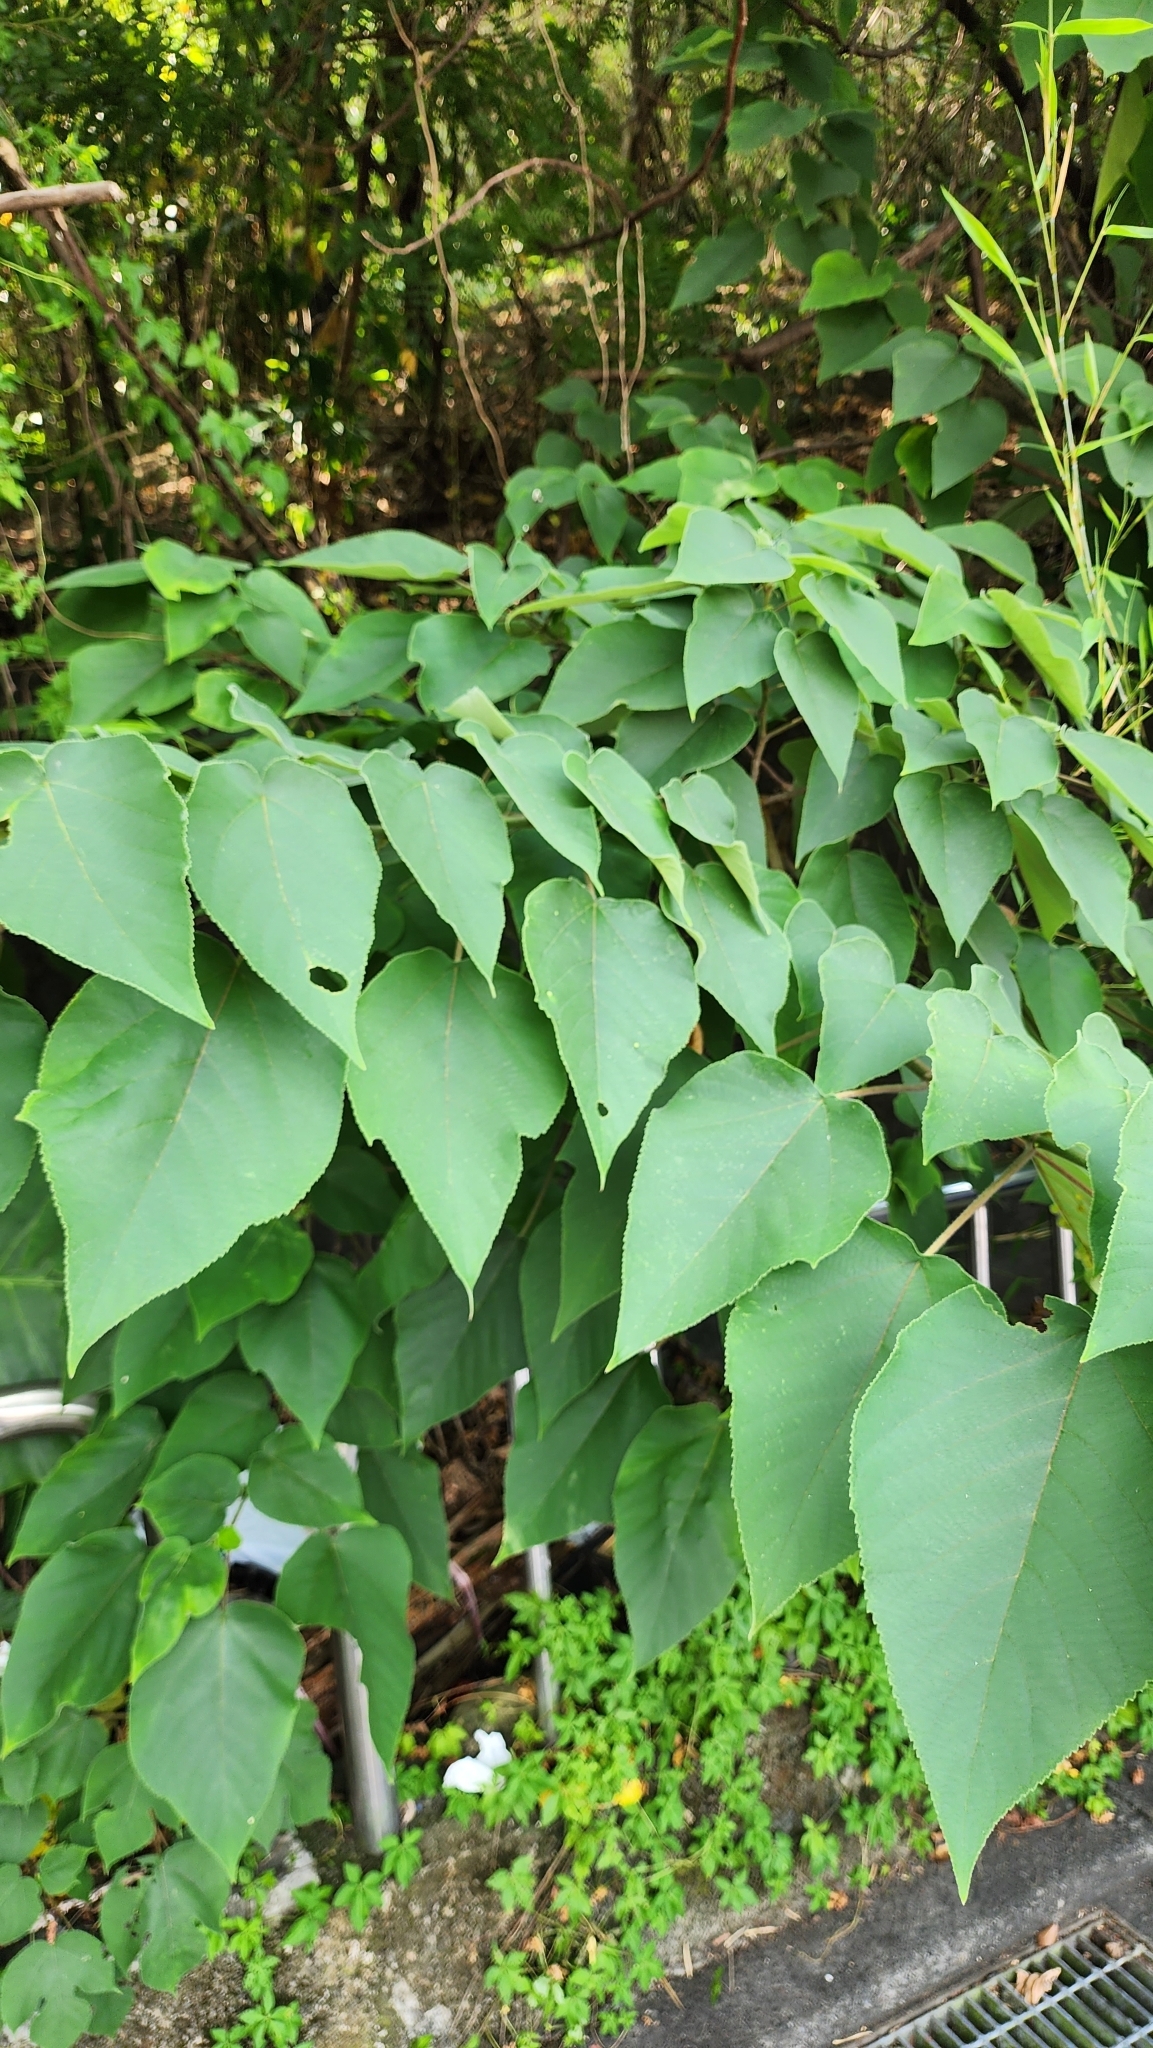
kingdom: Plantae
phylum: Tracheophyta
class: Magnoliopsida
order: Rosales
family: Moraceae
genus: Broussonetia
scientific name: Broussonetia papyrifera
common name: Paper mulberry
